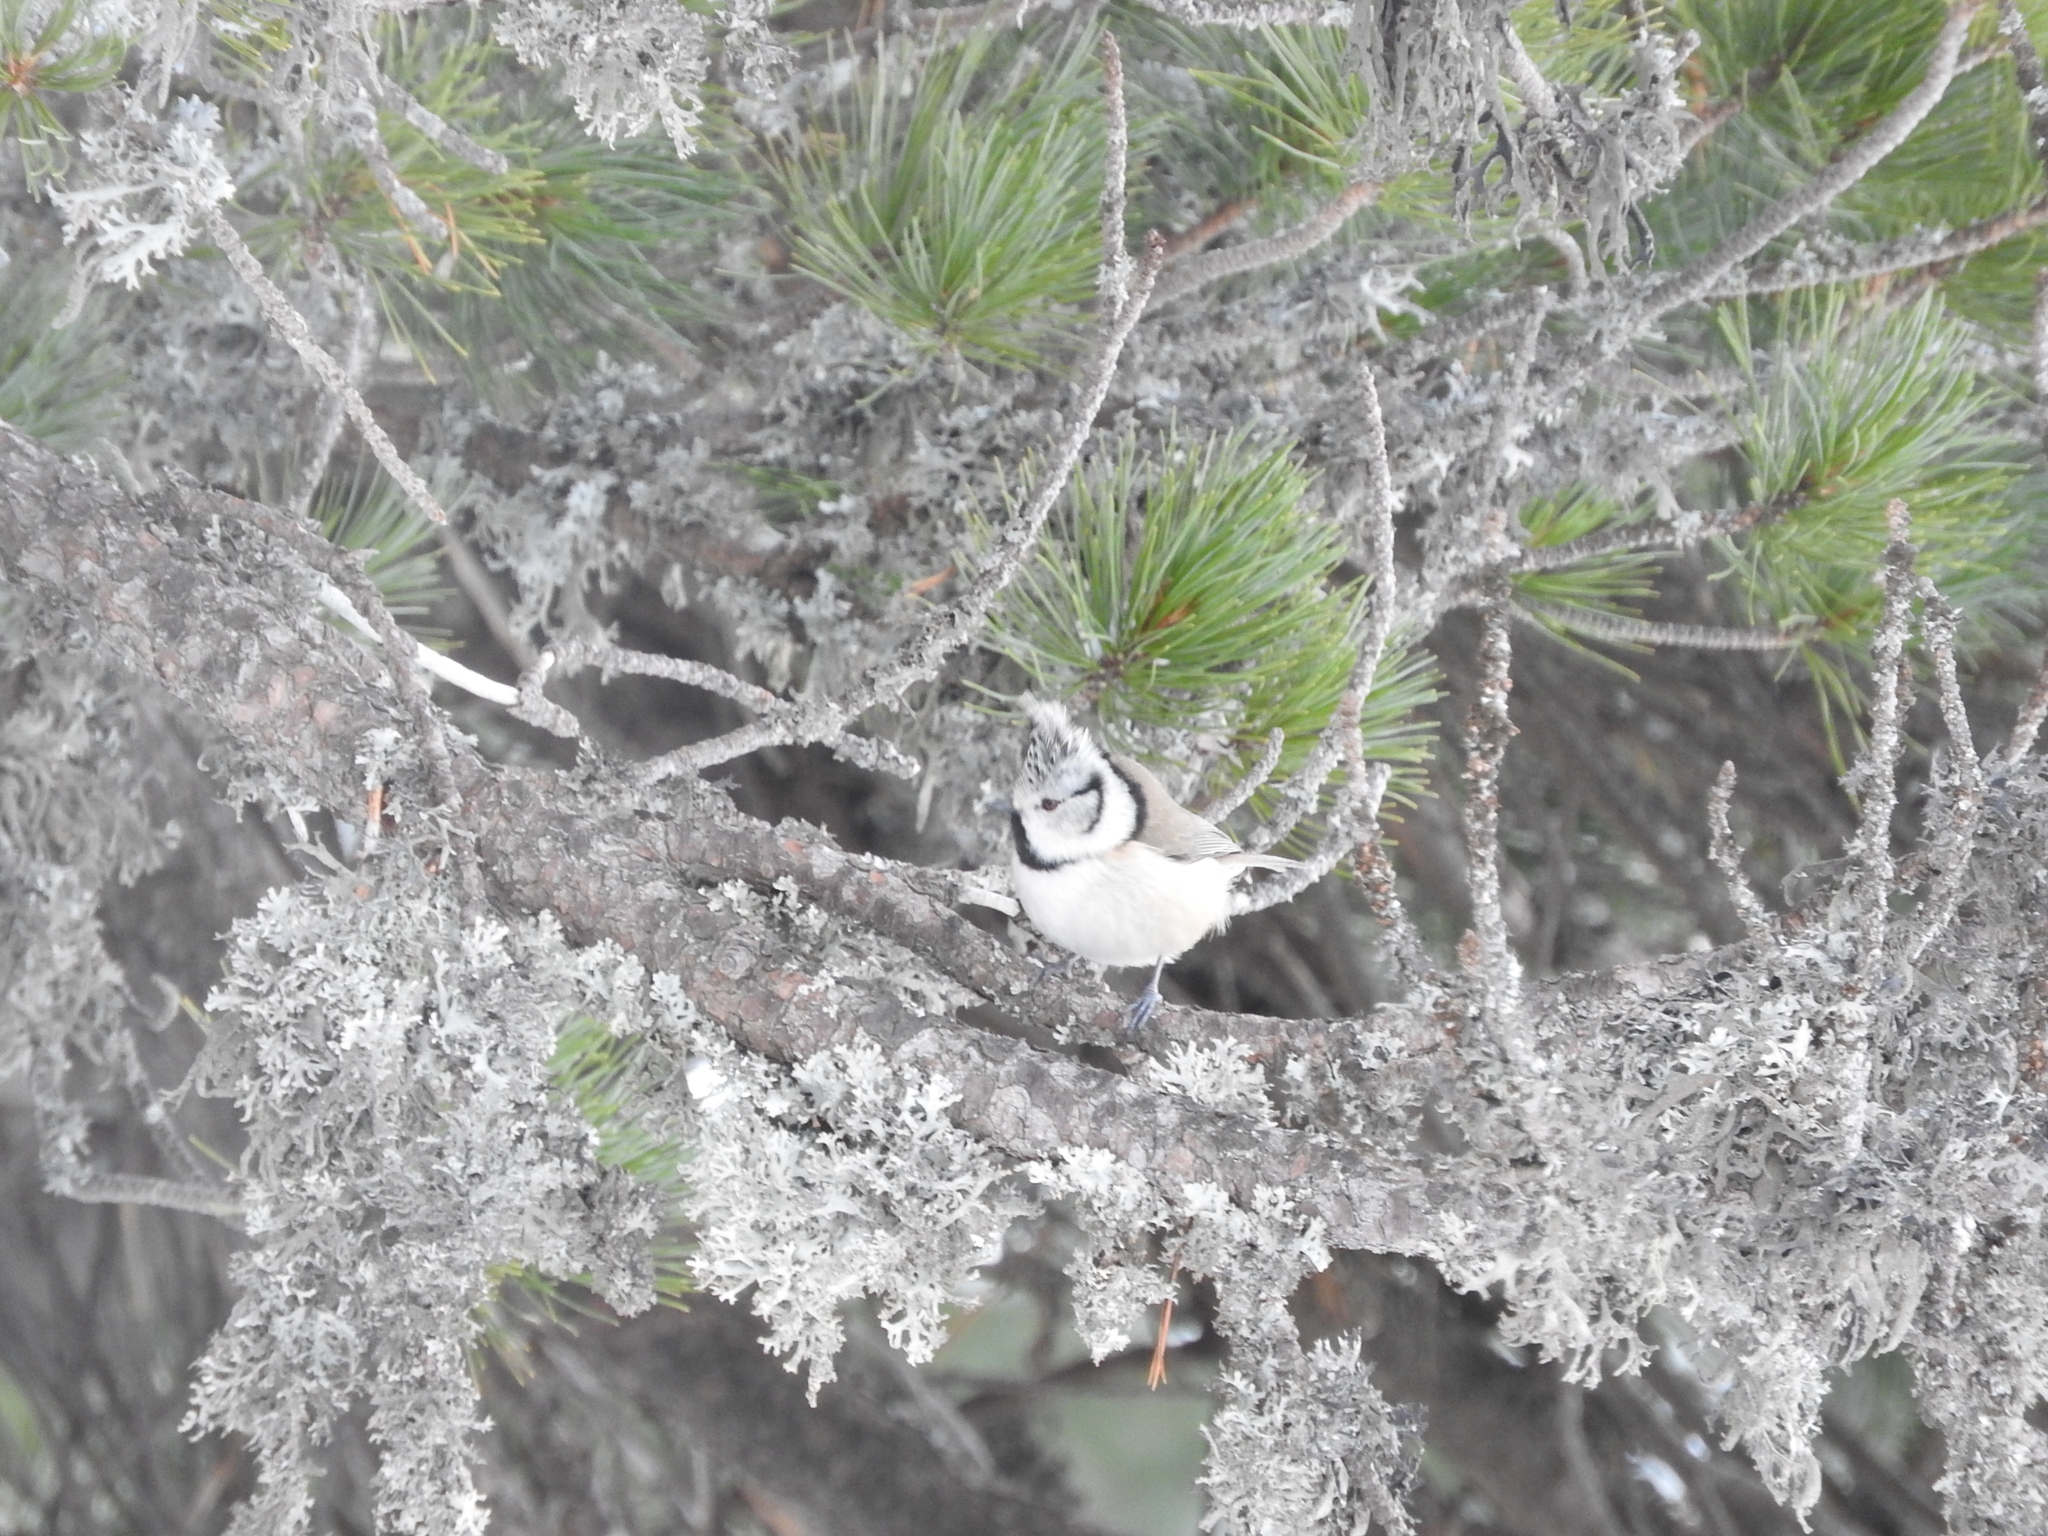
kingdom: Animalia
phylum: Chordata
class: Aves
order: Passeriformes
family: Paridae
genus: Lophophanes
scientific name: Lophophanes cristatus
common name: European crested tit
